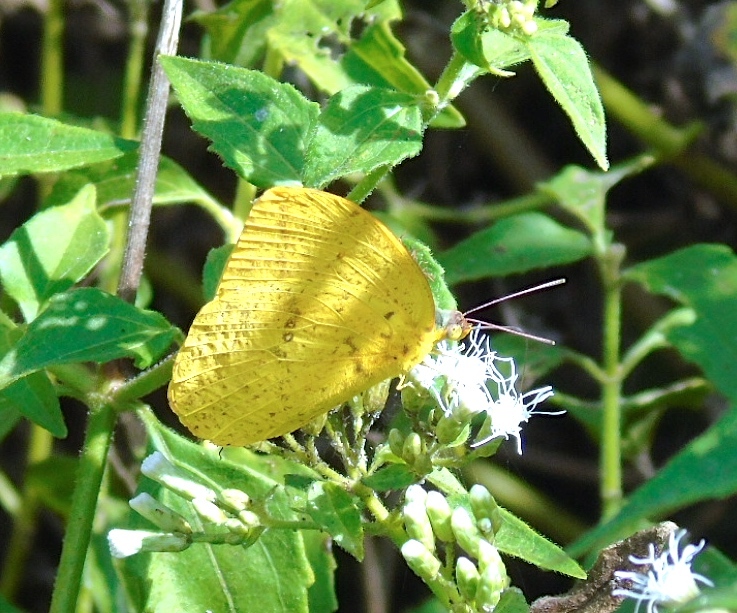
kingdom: Animalia
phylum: Arthropoda
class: Insecta
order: Lepidoptera
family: Pieridae
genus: Phoebis
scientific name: Phoebis agarithe
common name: Large orange sulphur
